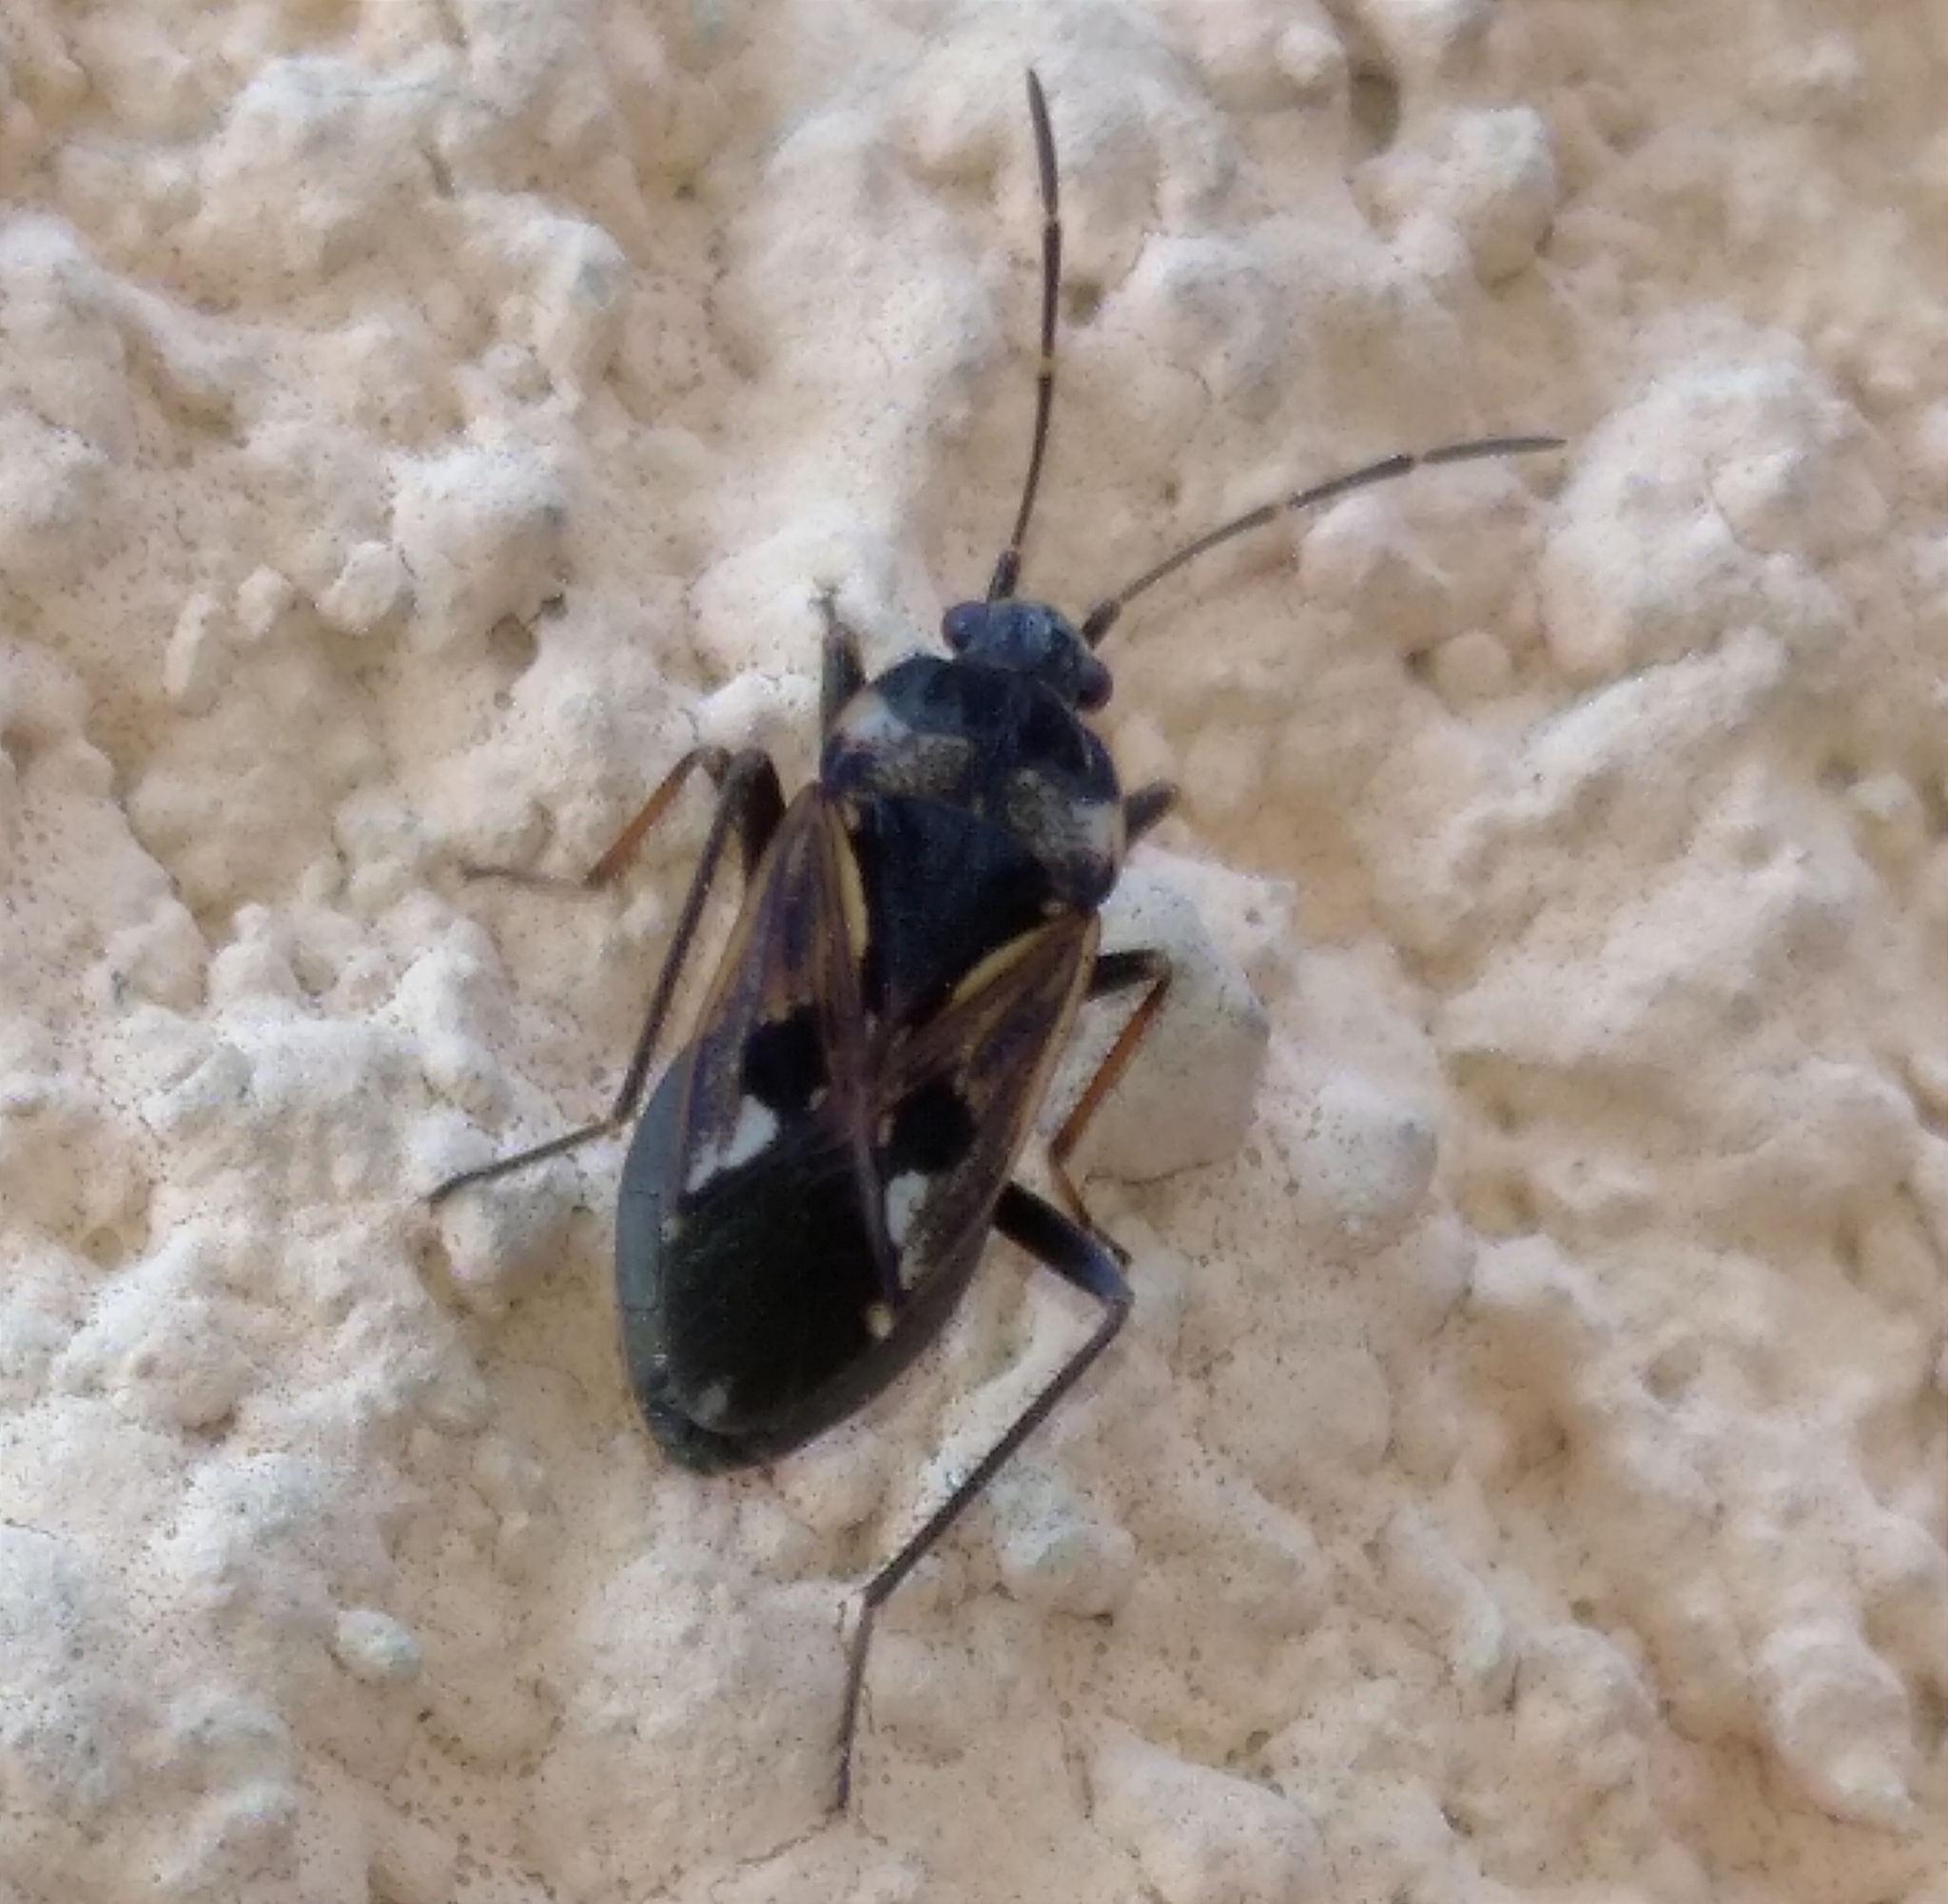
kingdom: Animalia
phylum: Arthropoda
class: Insecta
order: Hemiptera
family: Rhyparochromidae
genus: Rhyparochromus
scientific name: Rhyparochromus vulgaris
